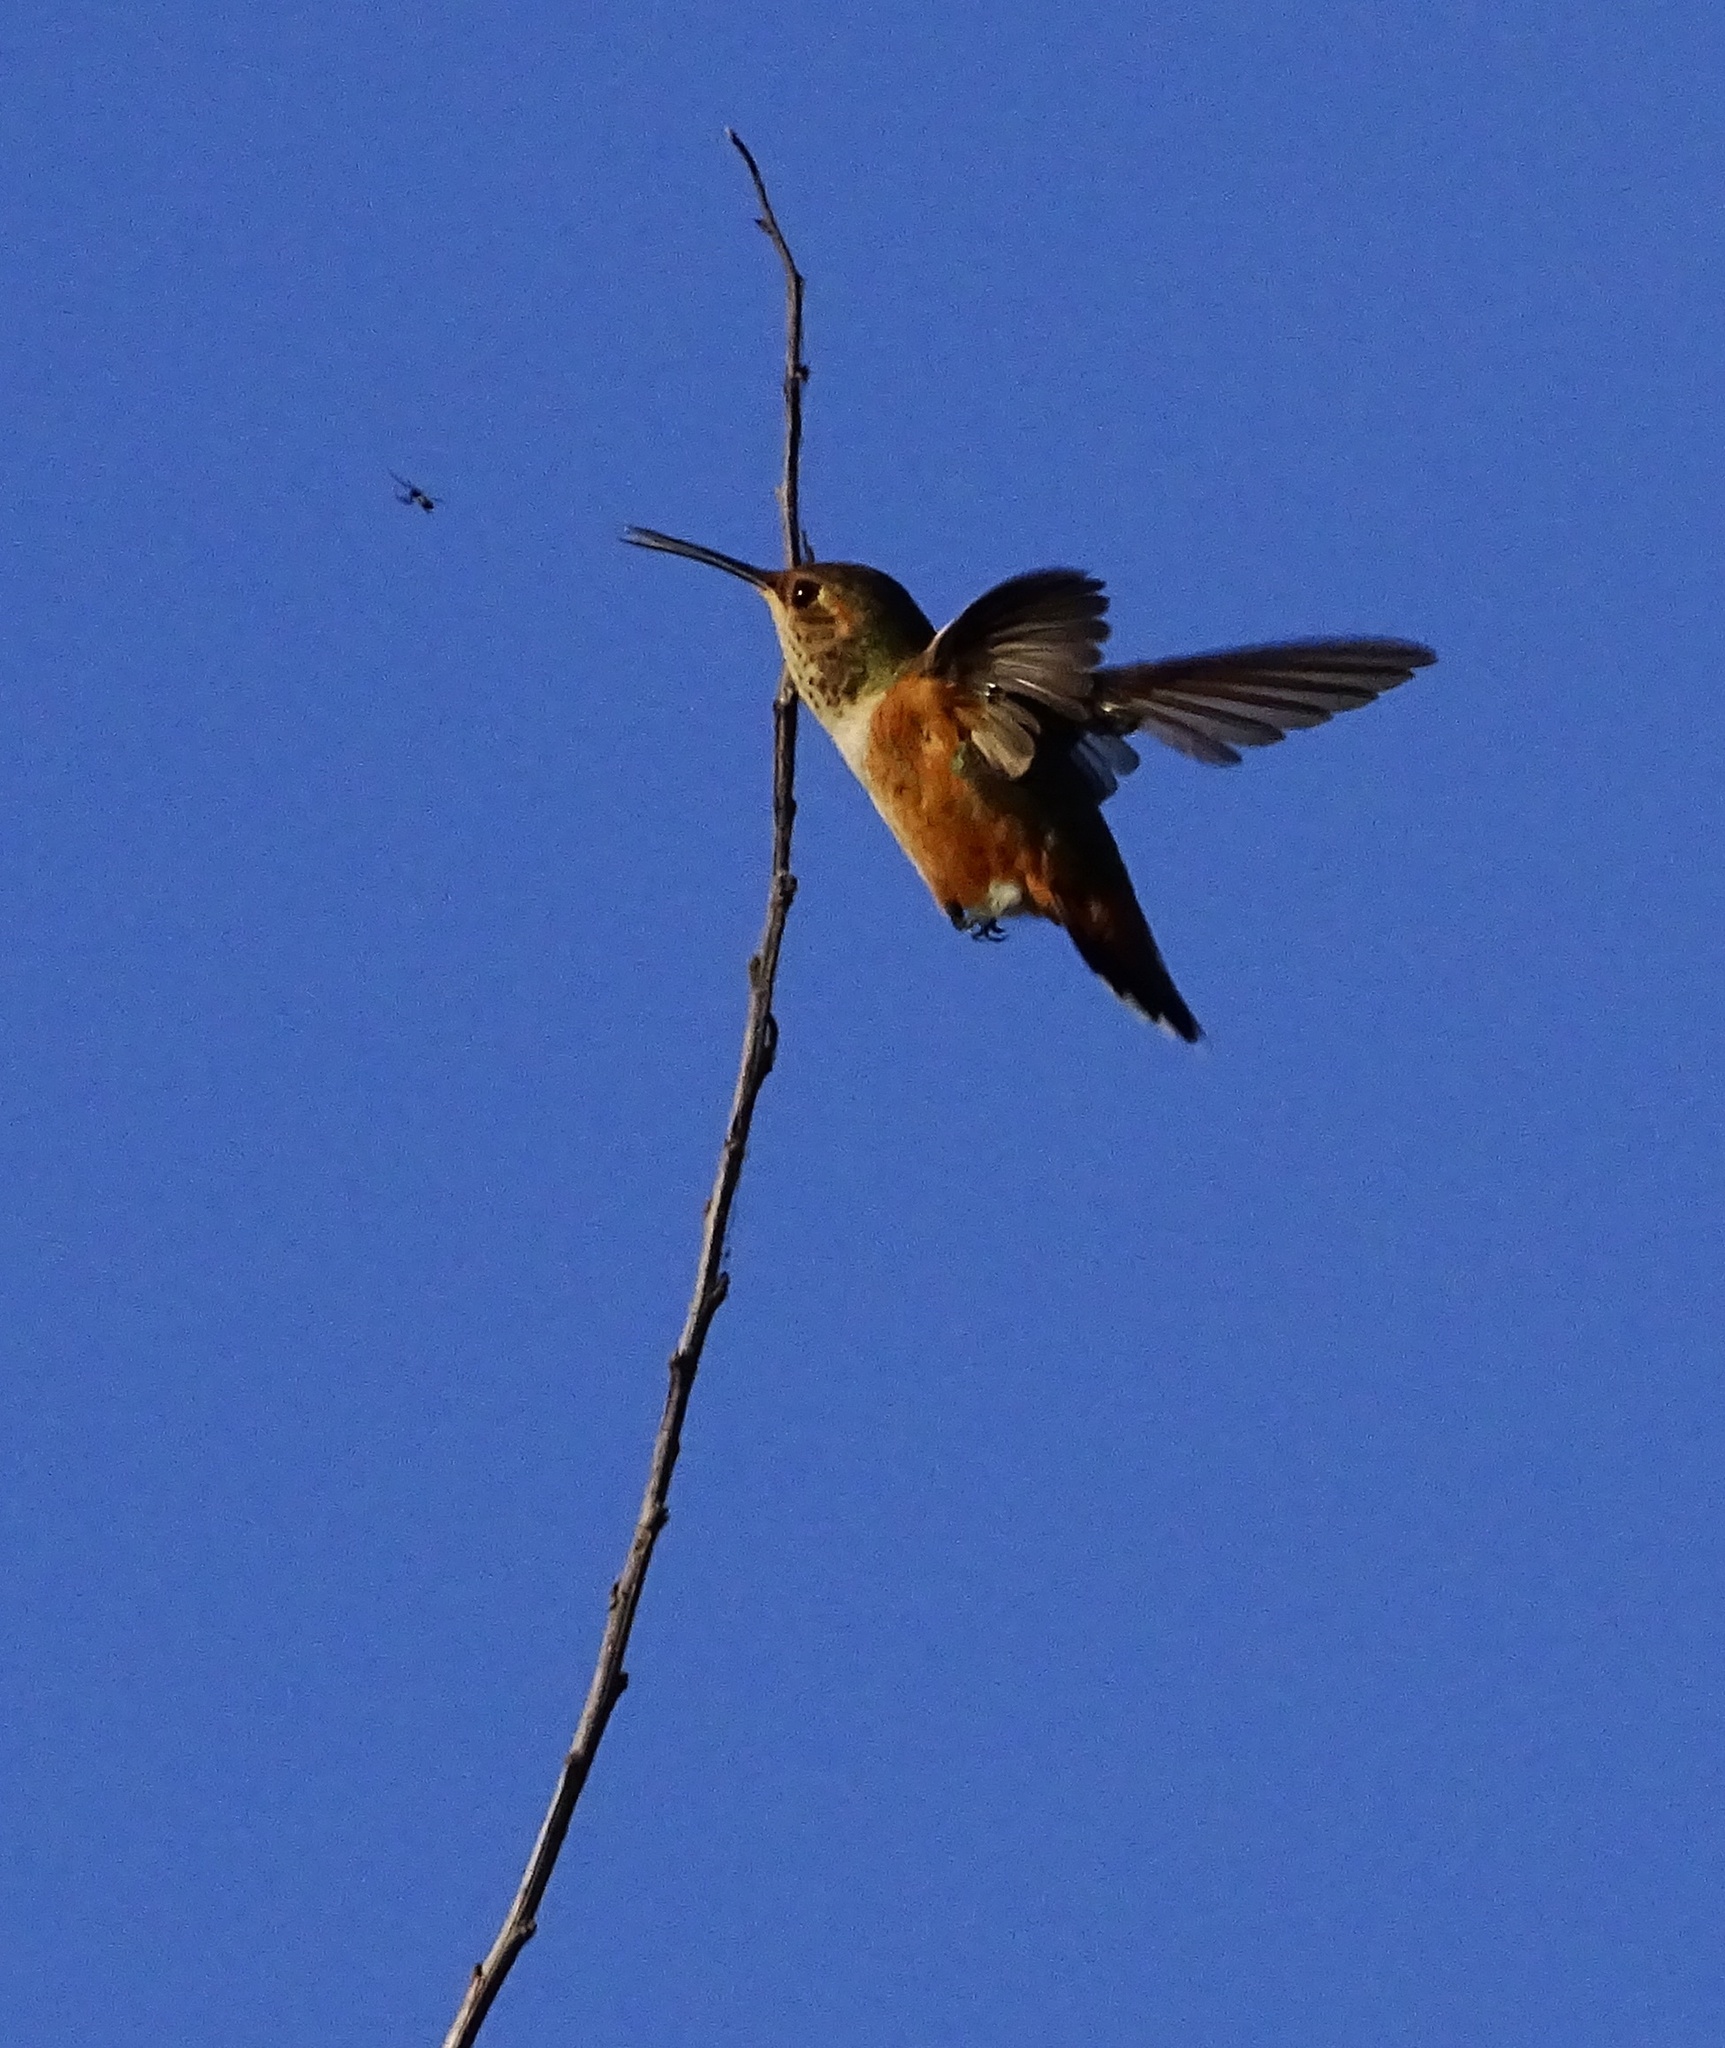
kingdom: Animalia
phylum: Chordata
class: Aves
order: Apodiformes
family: Trochilidae
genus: Selasphorus
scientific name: Selasphorus sasin
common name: Allen's hummingbird
